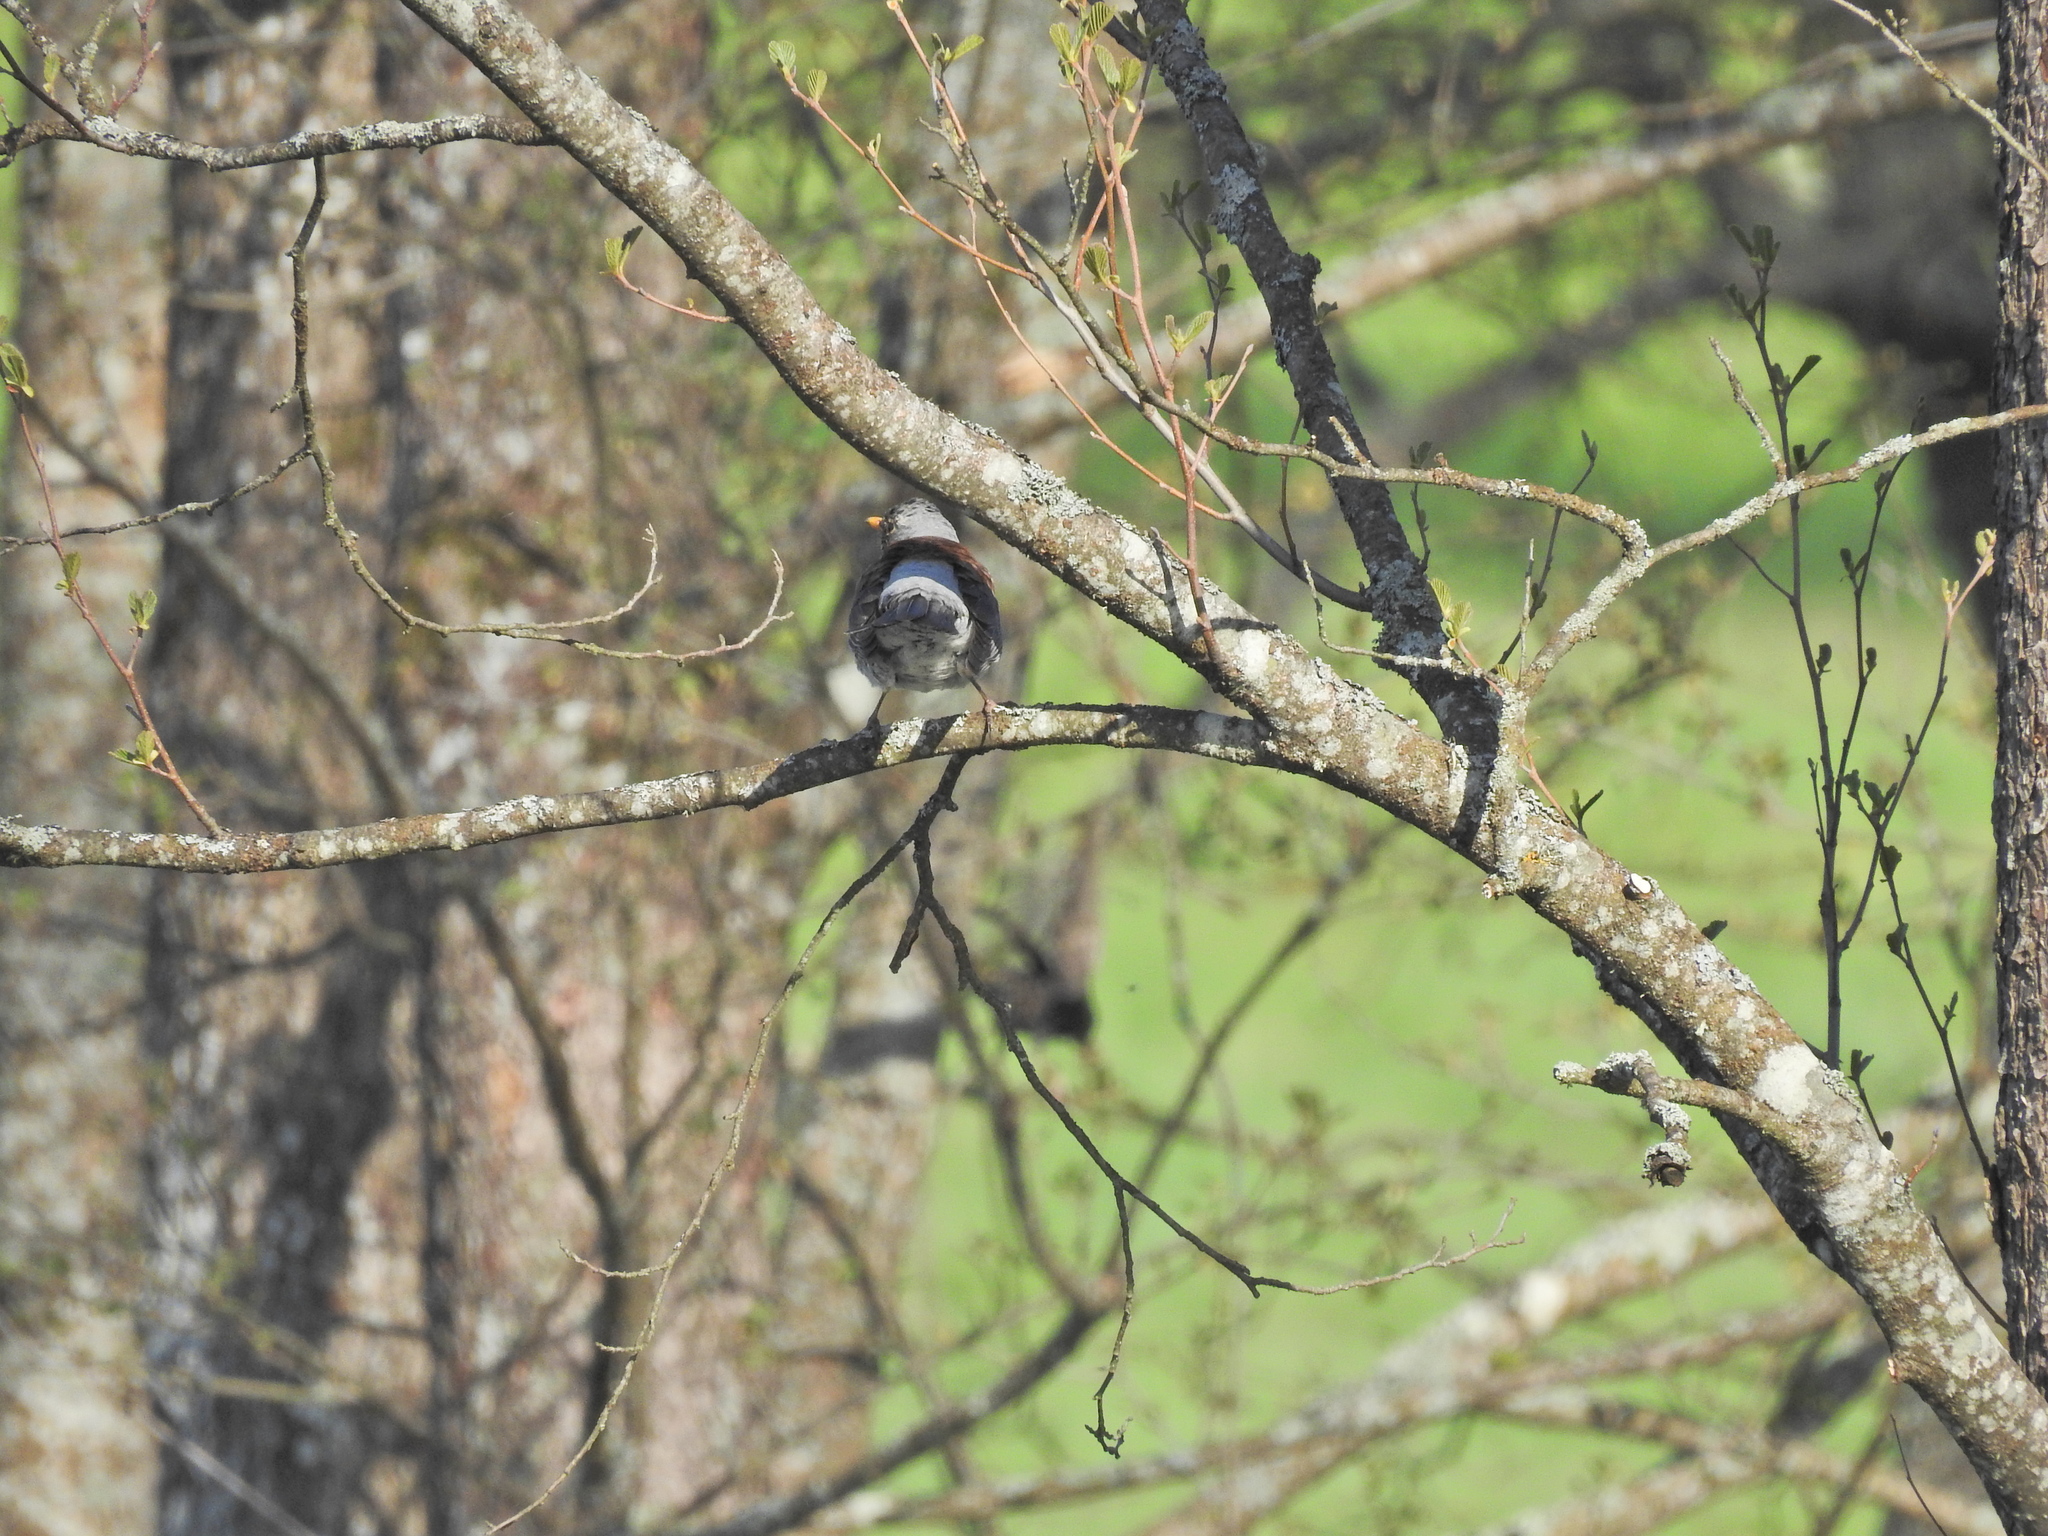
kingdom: Animalia
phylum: Chordata
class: Aves
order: Passeriformes
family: Turdidae
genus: Turdus
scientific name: Turdus pilaris
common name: Fieldfare
